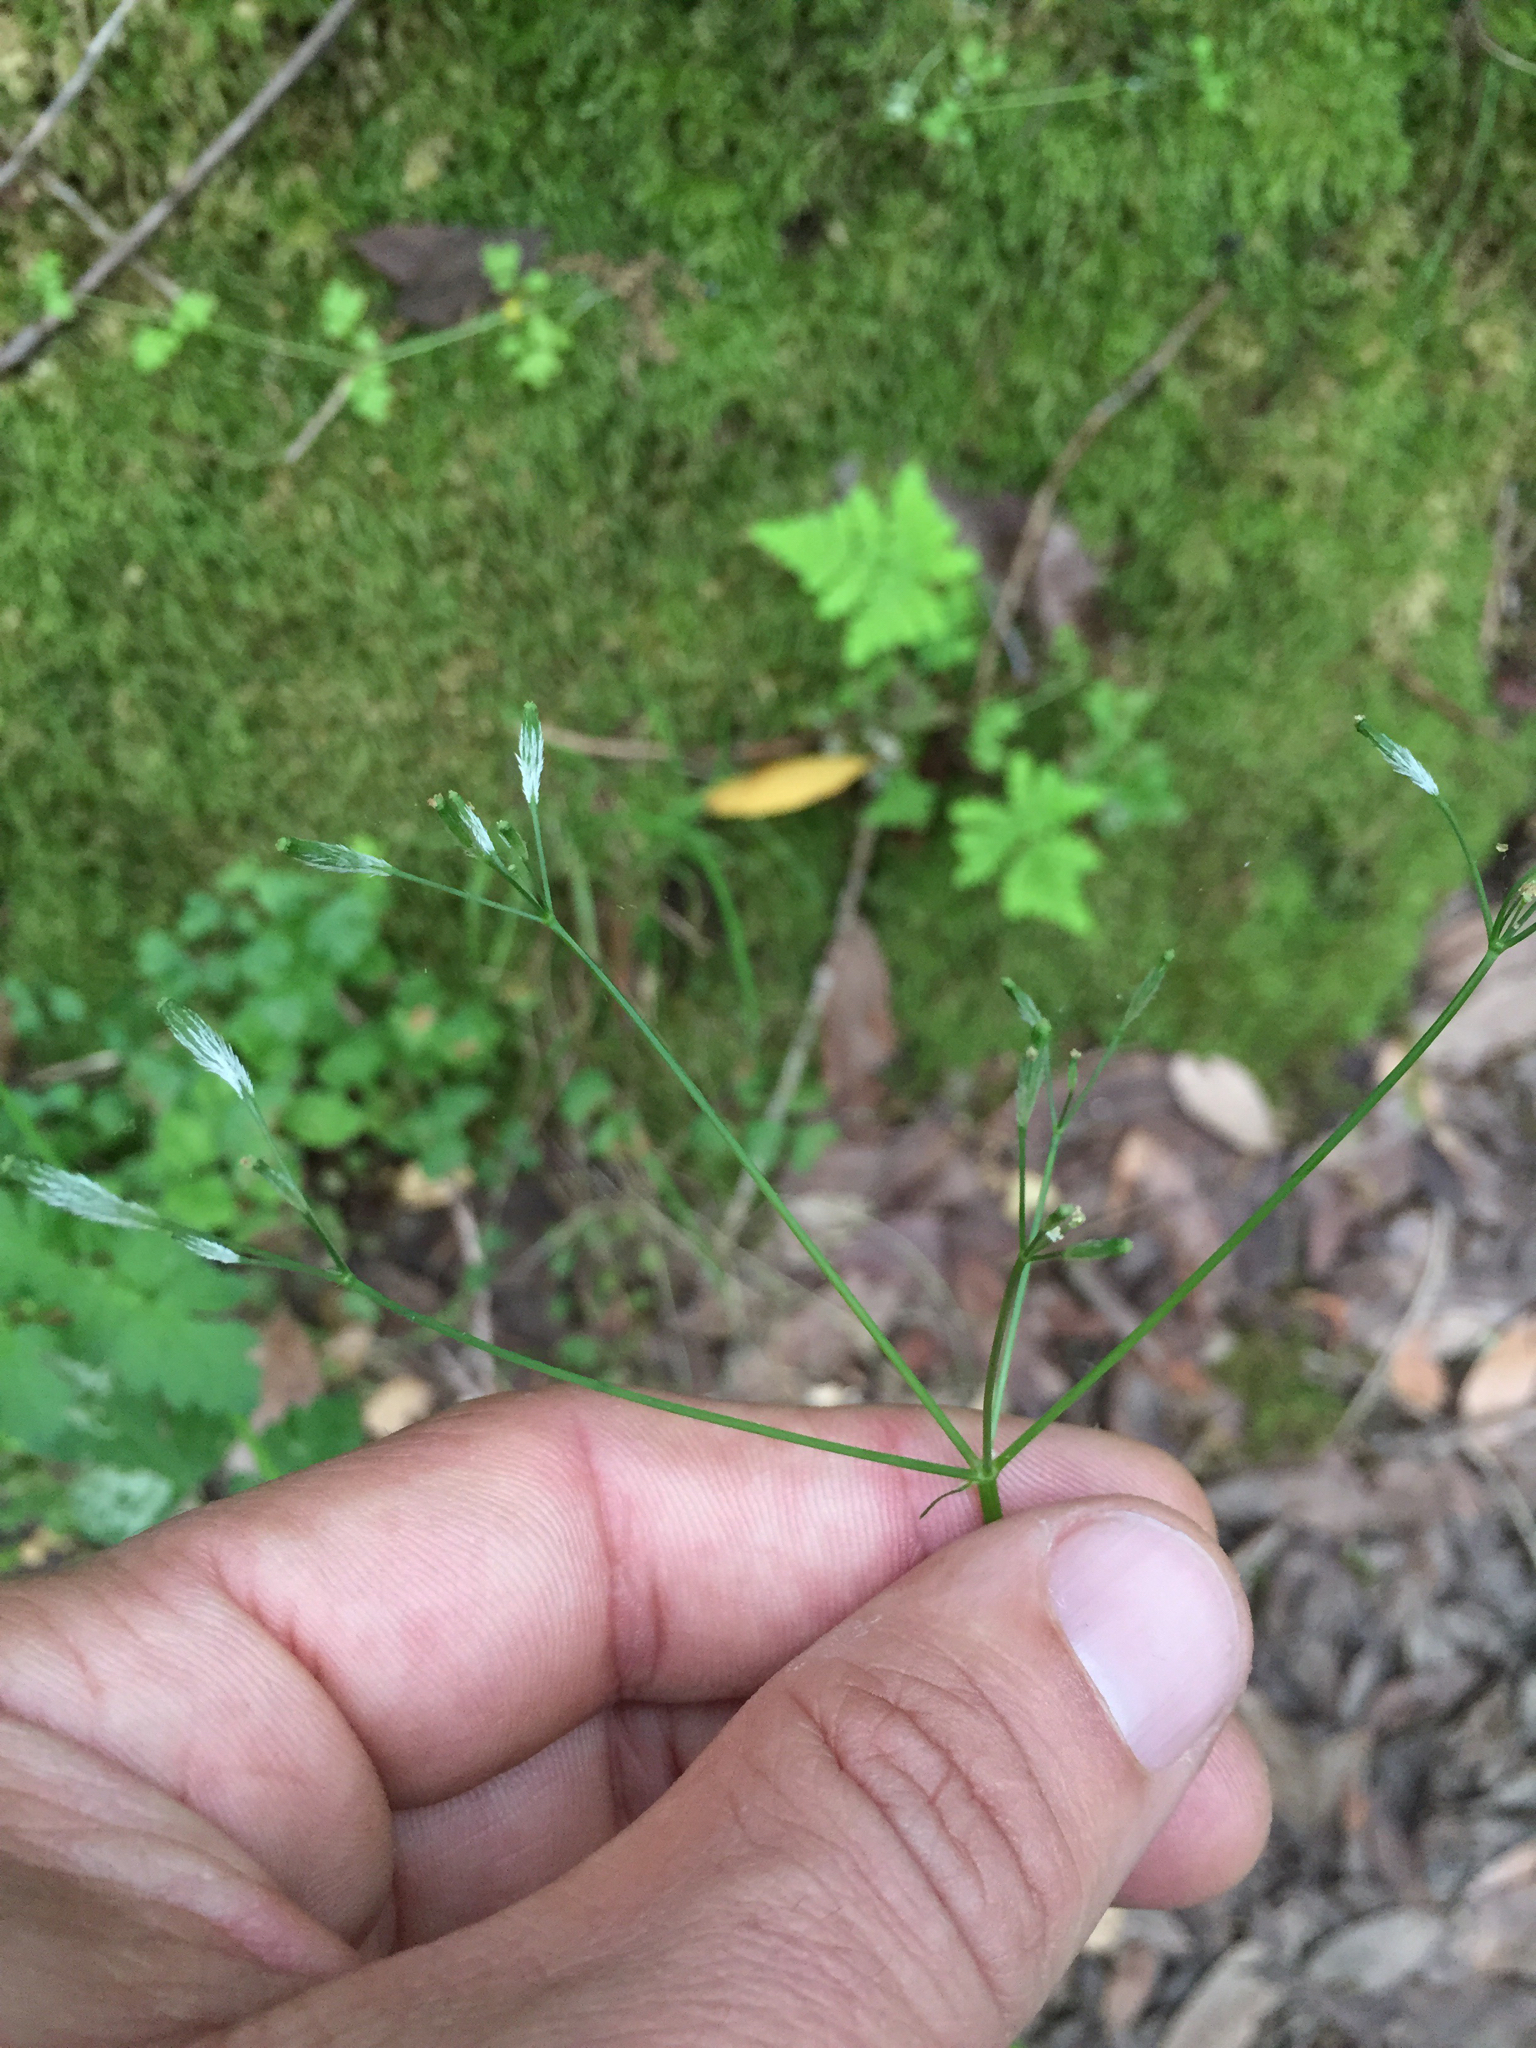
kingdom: Plantae
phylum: Tracheophyta
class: Magnoliopsida
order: Apiales
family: Apiaceae
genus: Osmorhiza
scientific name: Osmorhiza berteroi
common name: Mountain sweet cicely
